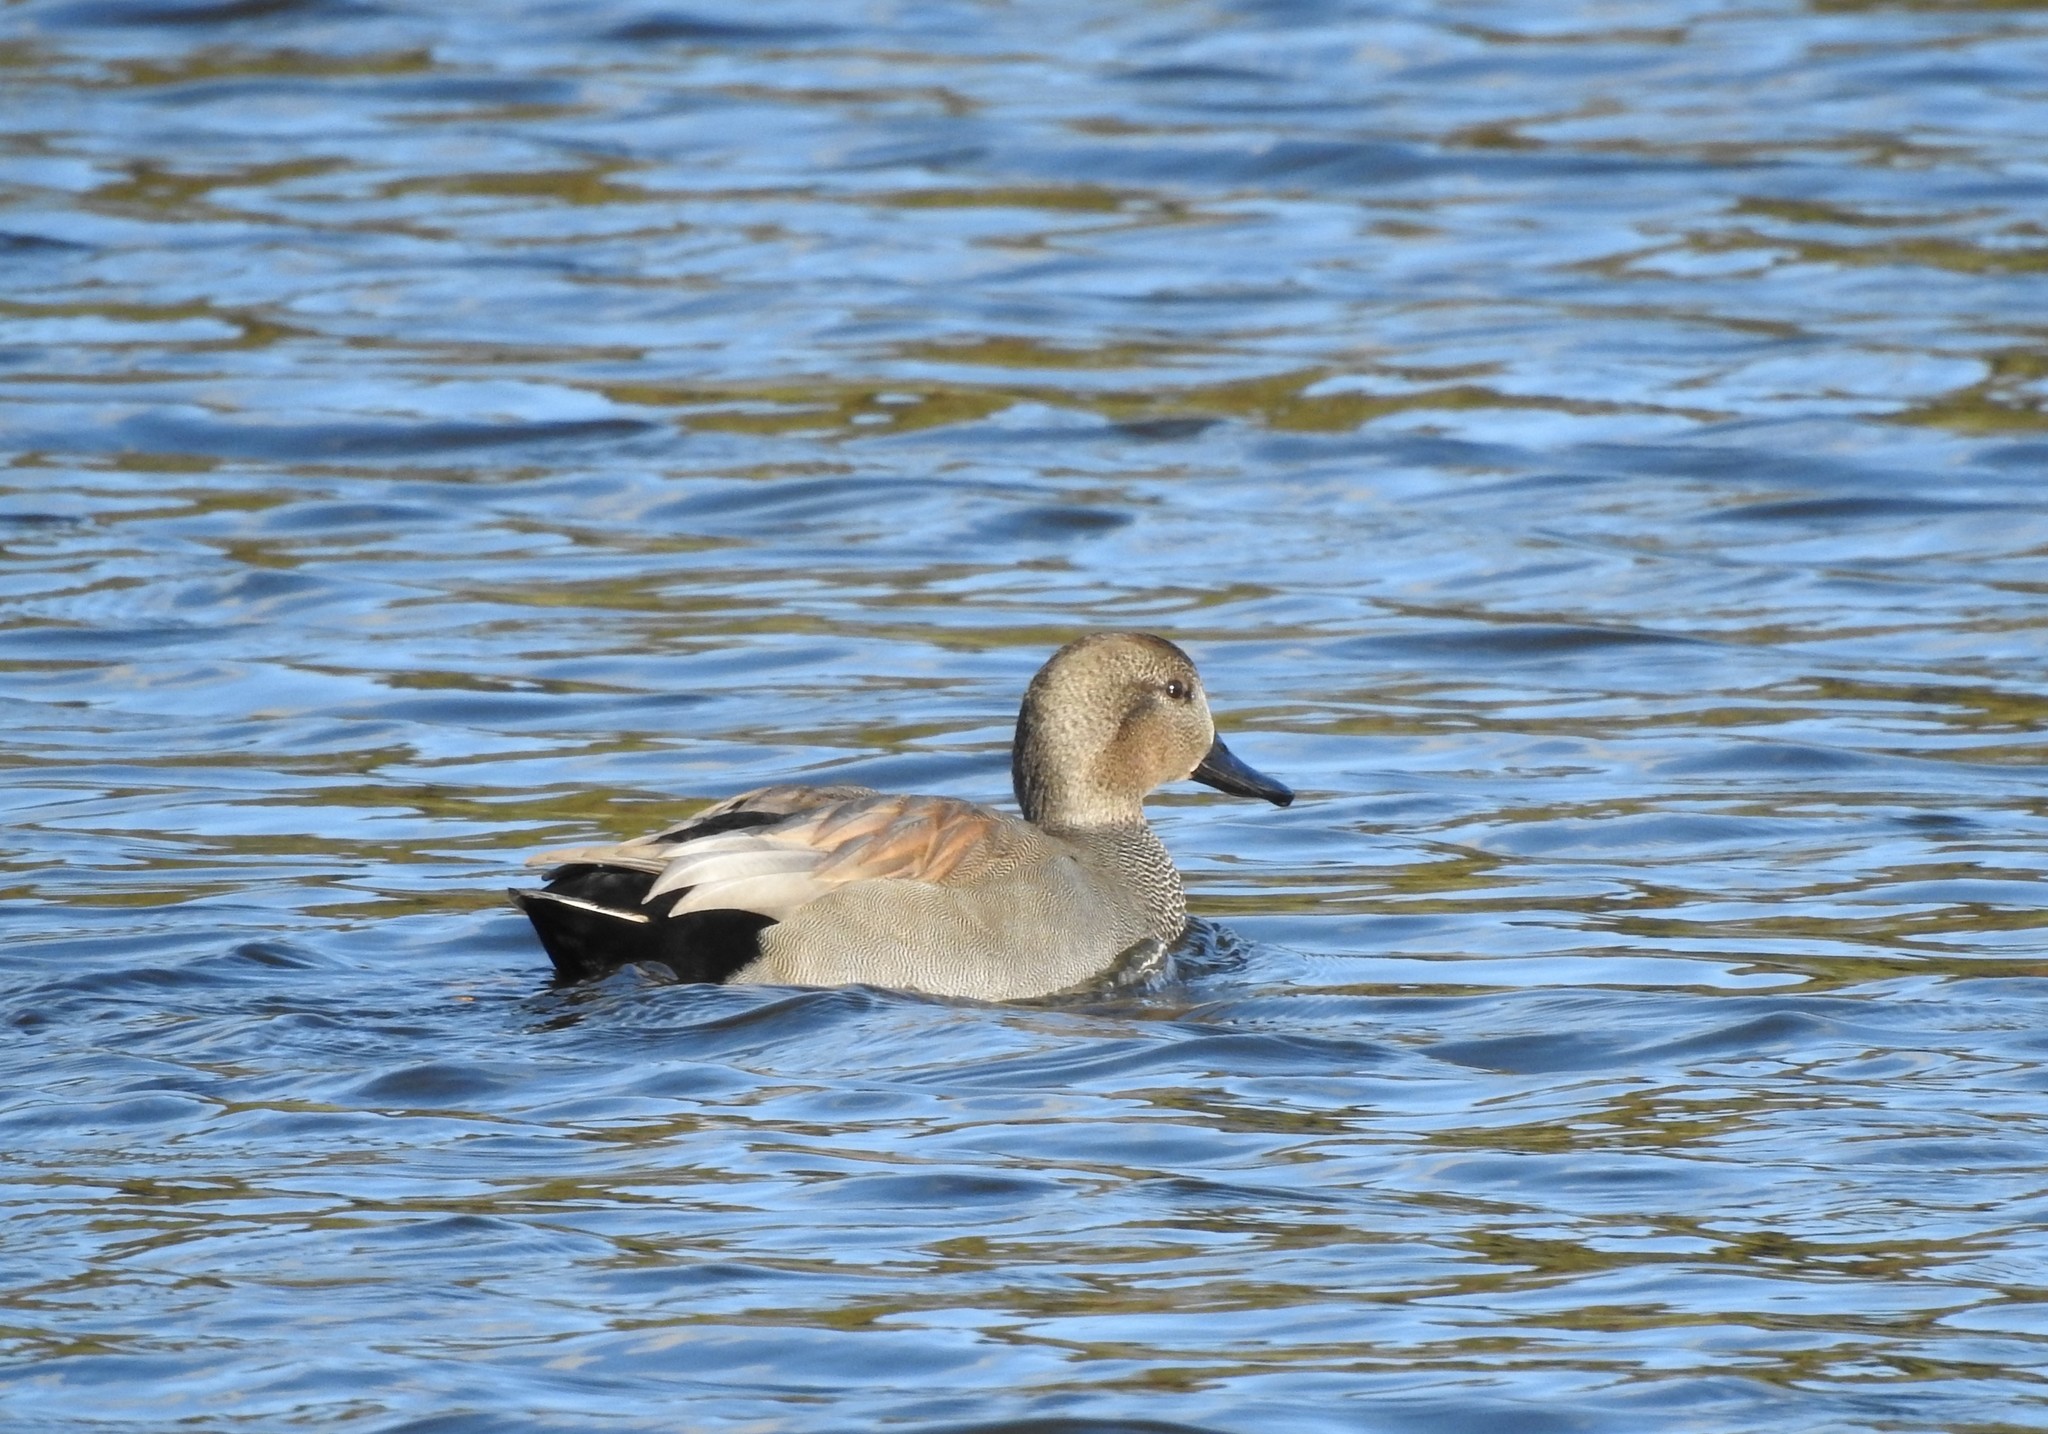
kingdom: Animalia
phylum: Chordata
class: Aves
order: Anseriformes
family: Anatidae
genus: Mareca
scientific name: Mareca strepera
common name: Gadwall
